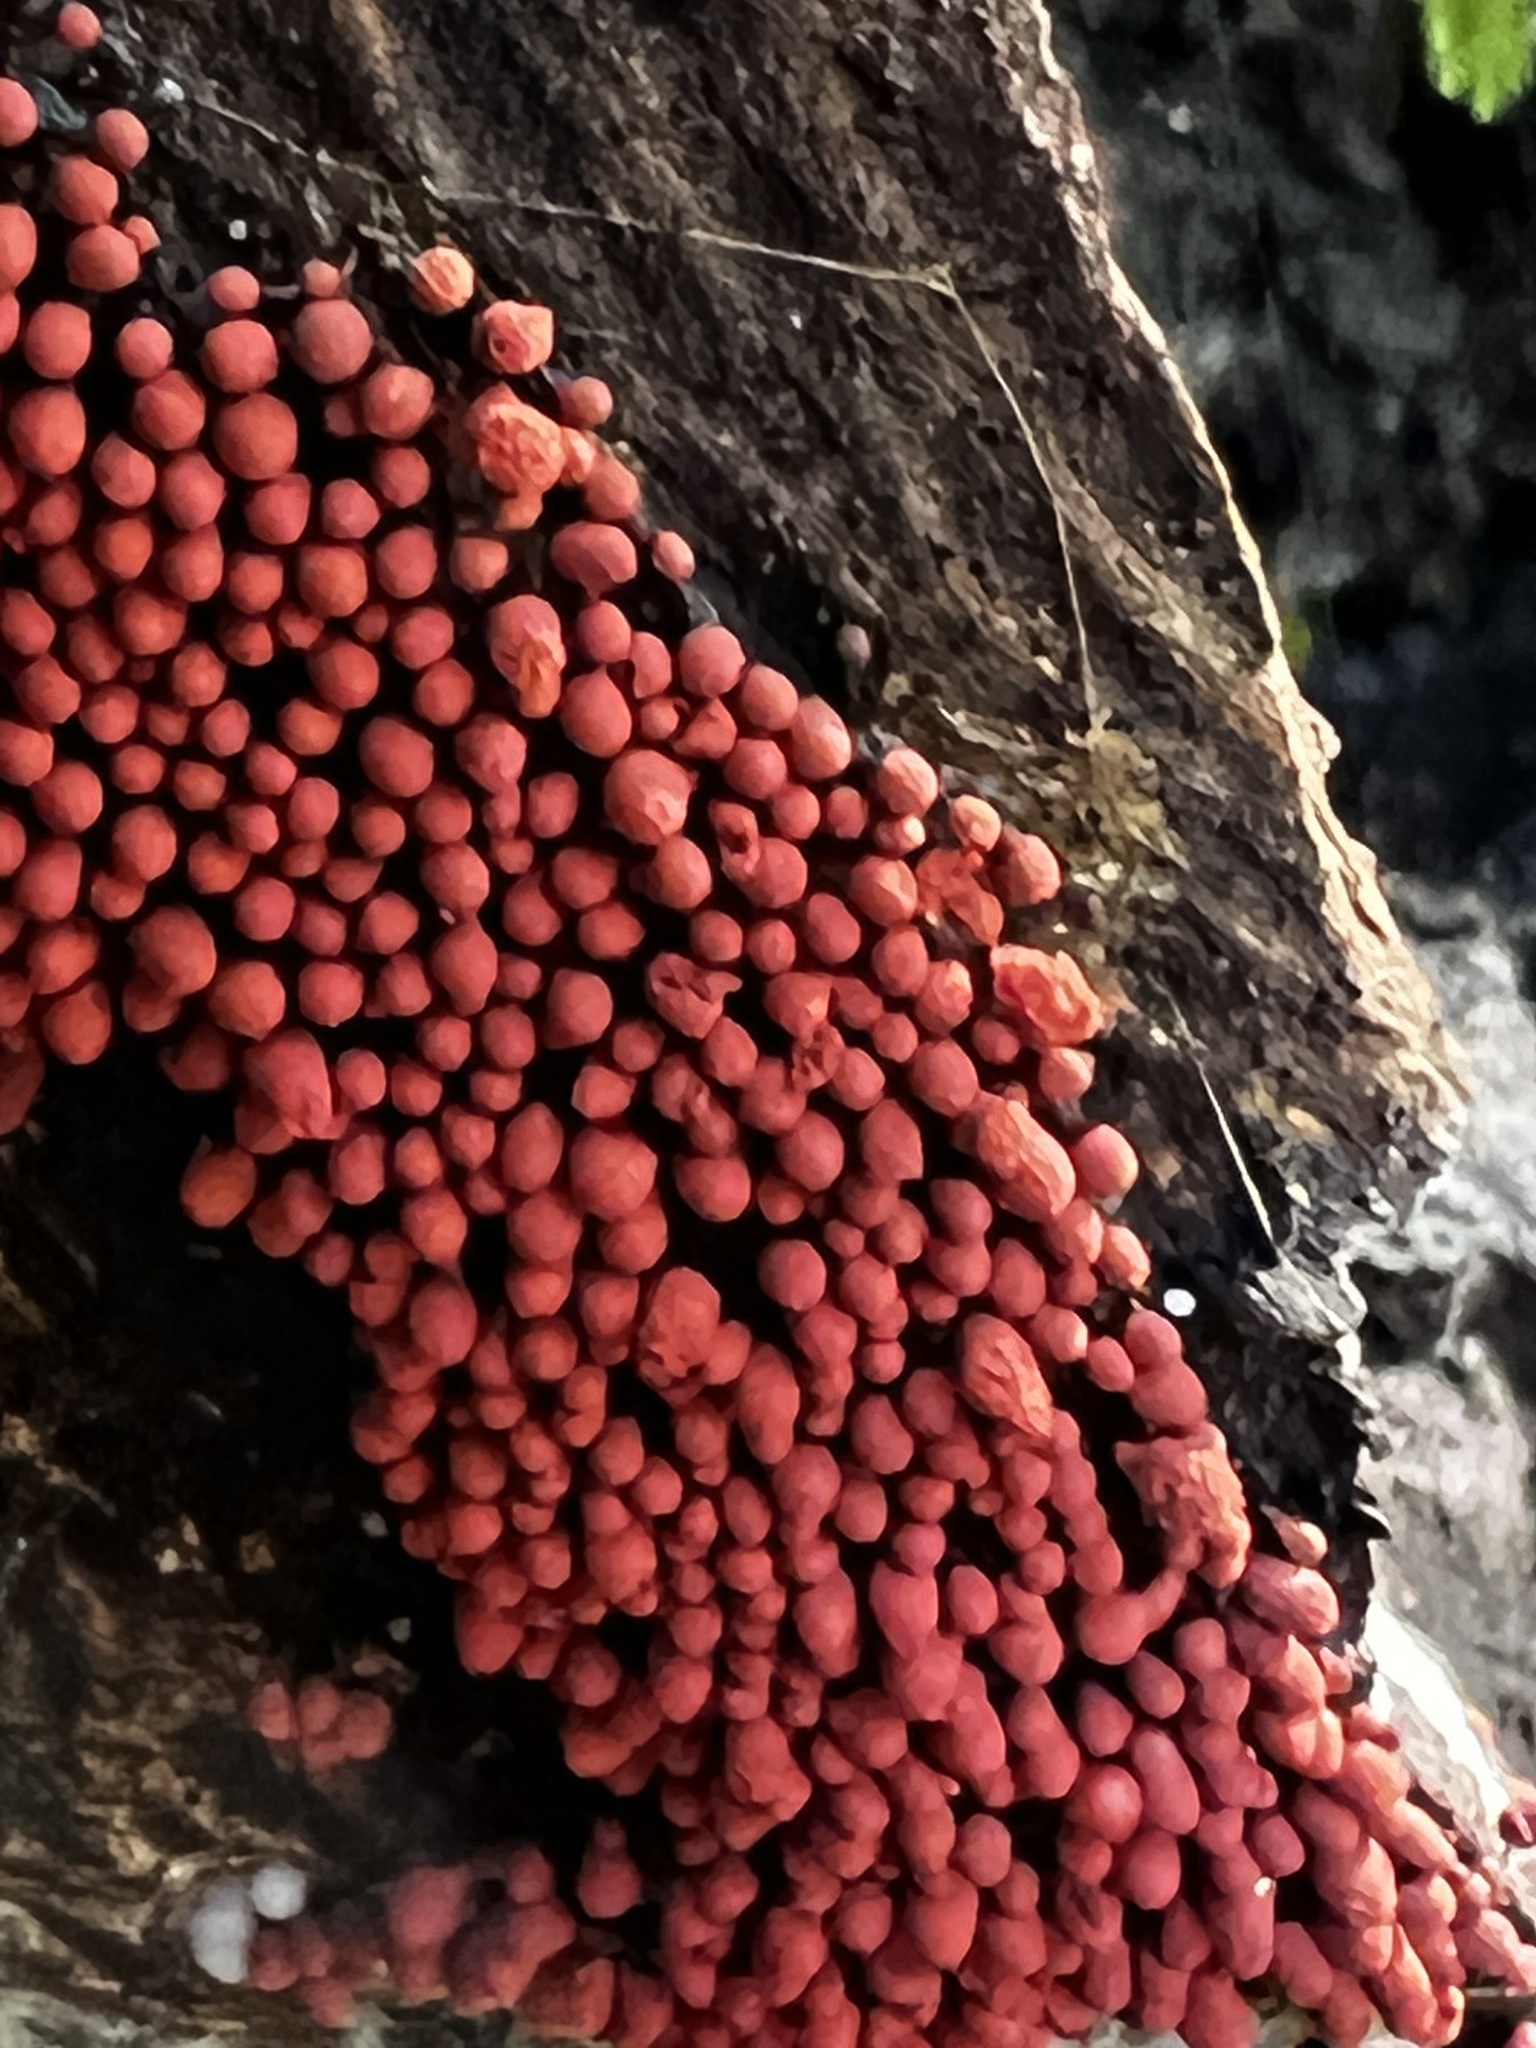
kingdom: Protozoa
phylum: Mycetozoa
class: Myxomycetes
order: Trichiales
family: Arcyriaceae
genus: Arcyria
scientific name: Arcyria denudata
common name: Carnival candy slime mold
